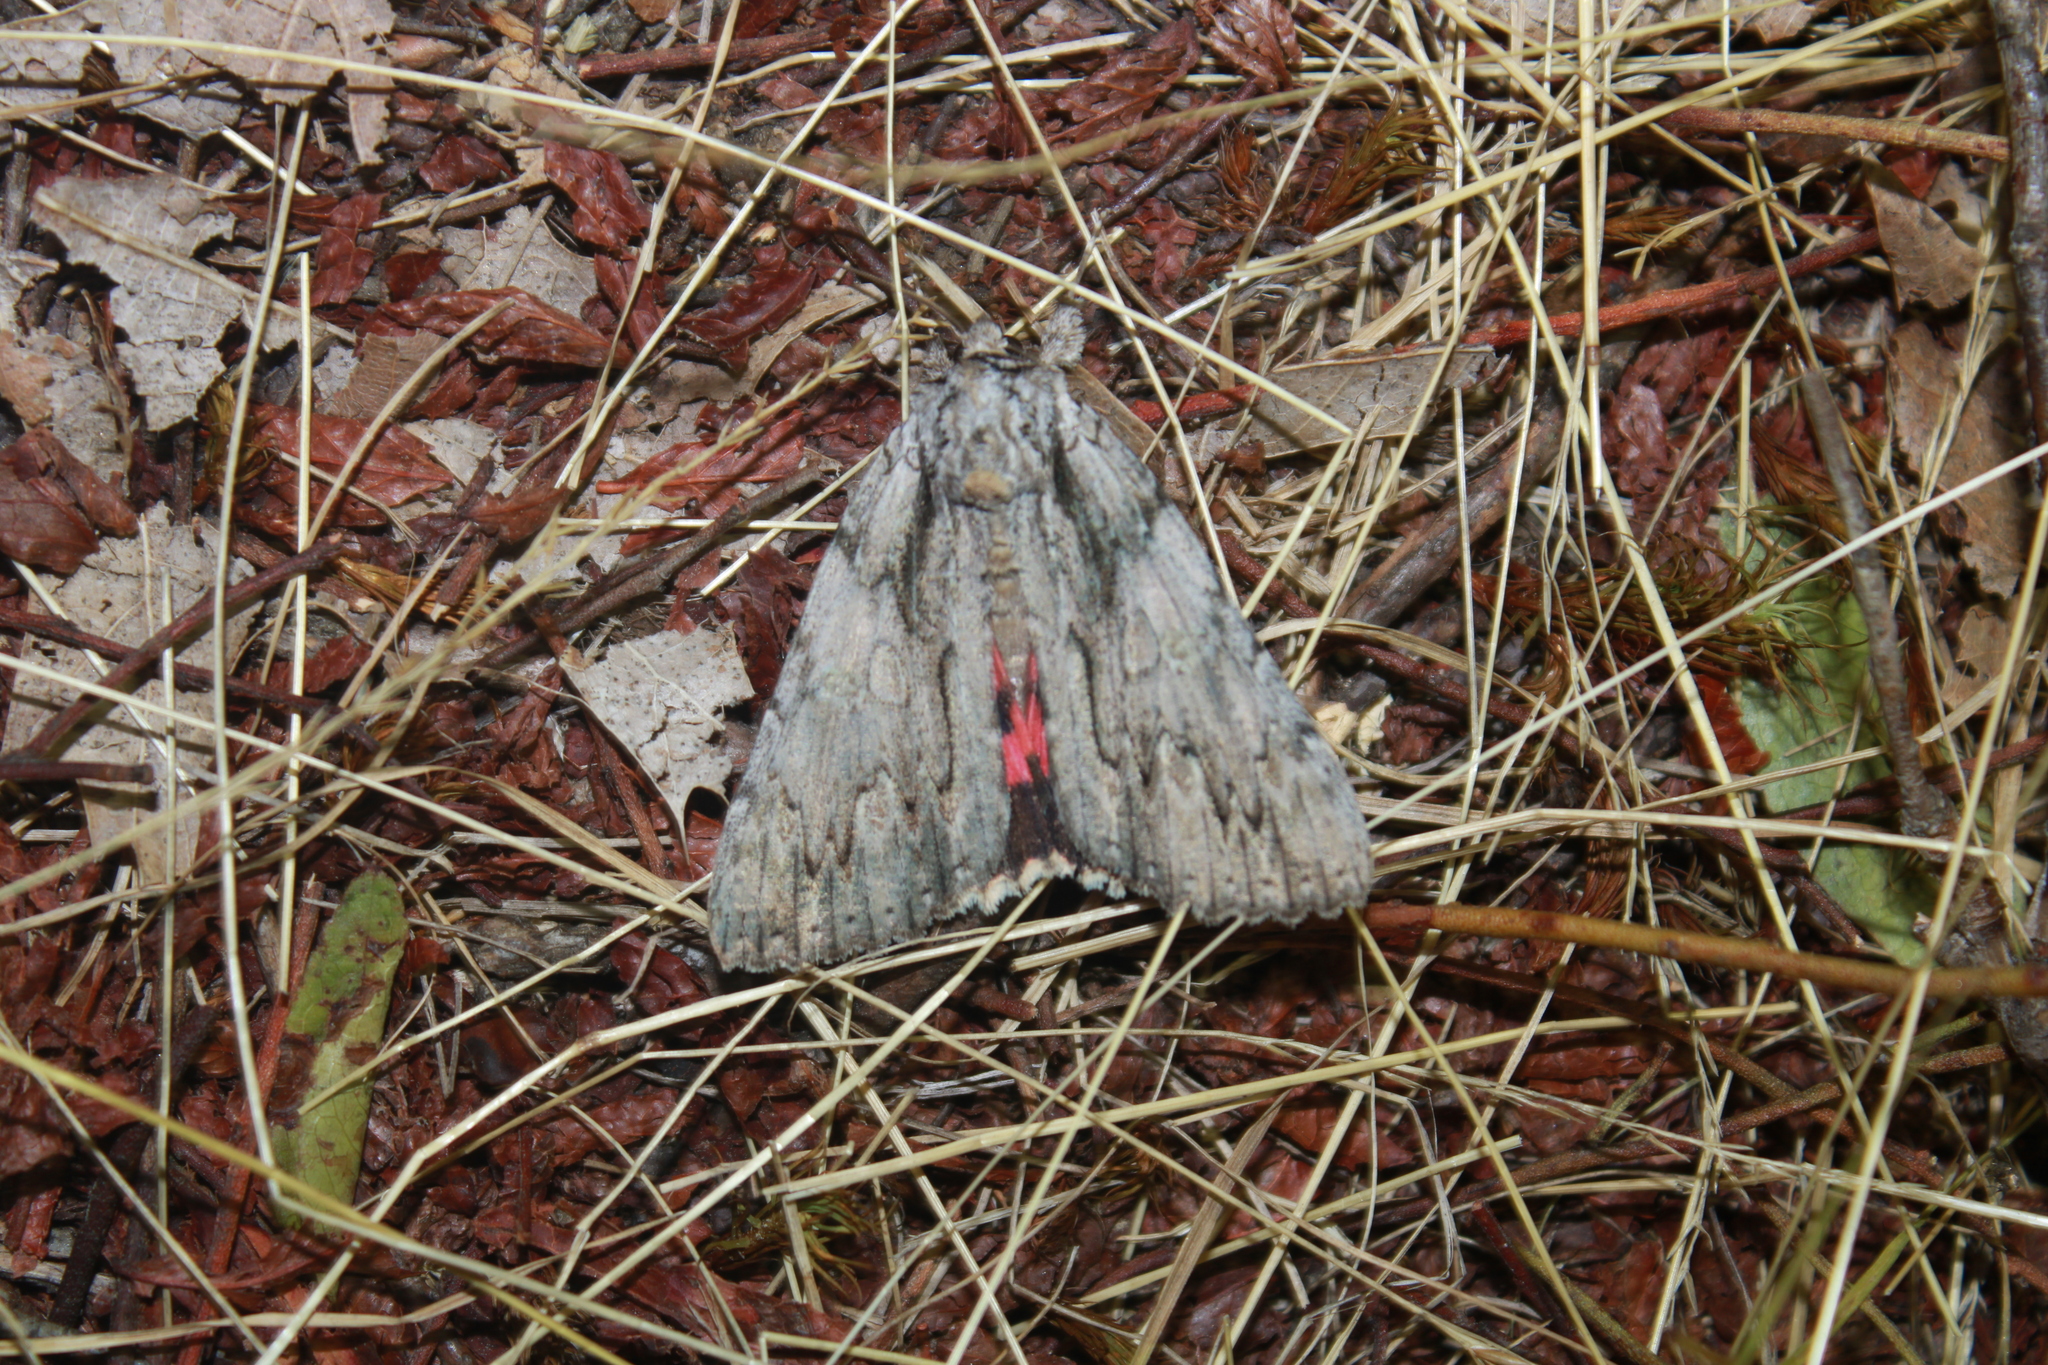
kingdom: Animalia
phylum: Arthropoda
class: Insecta
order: Lepidoptera
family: Erebidae
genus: Catocala
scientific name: Catocala coccinata
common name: Scarlet underwing
